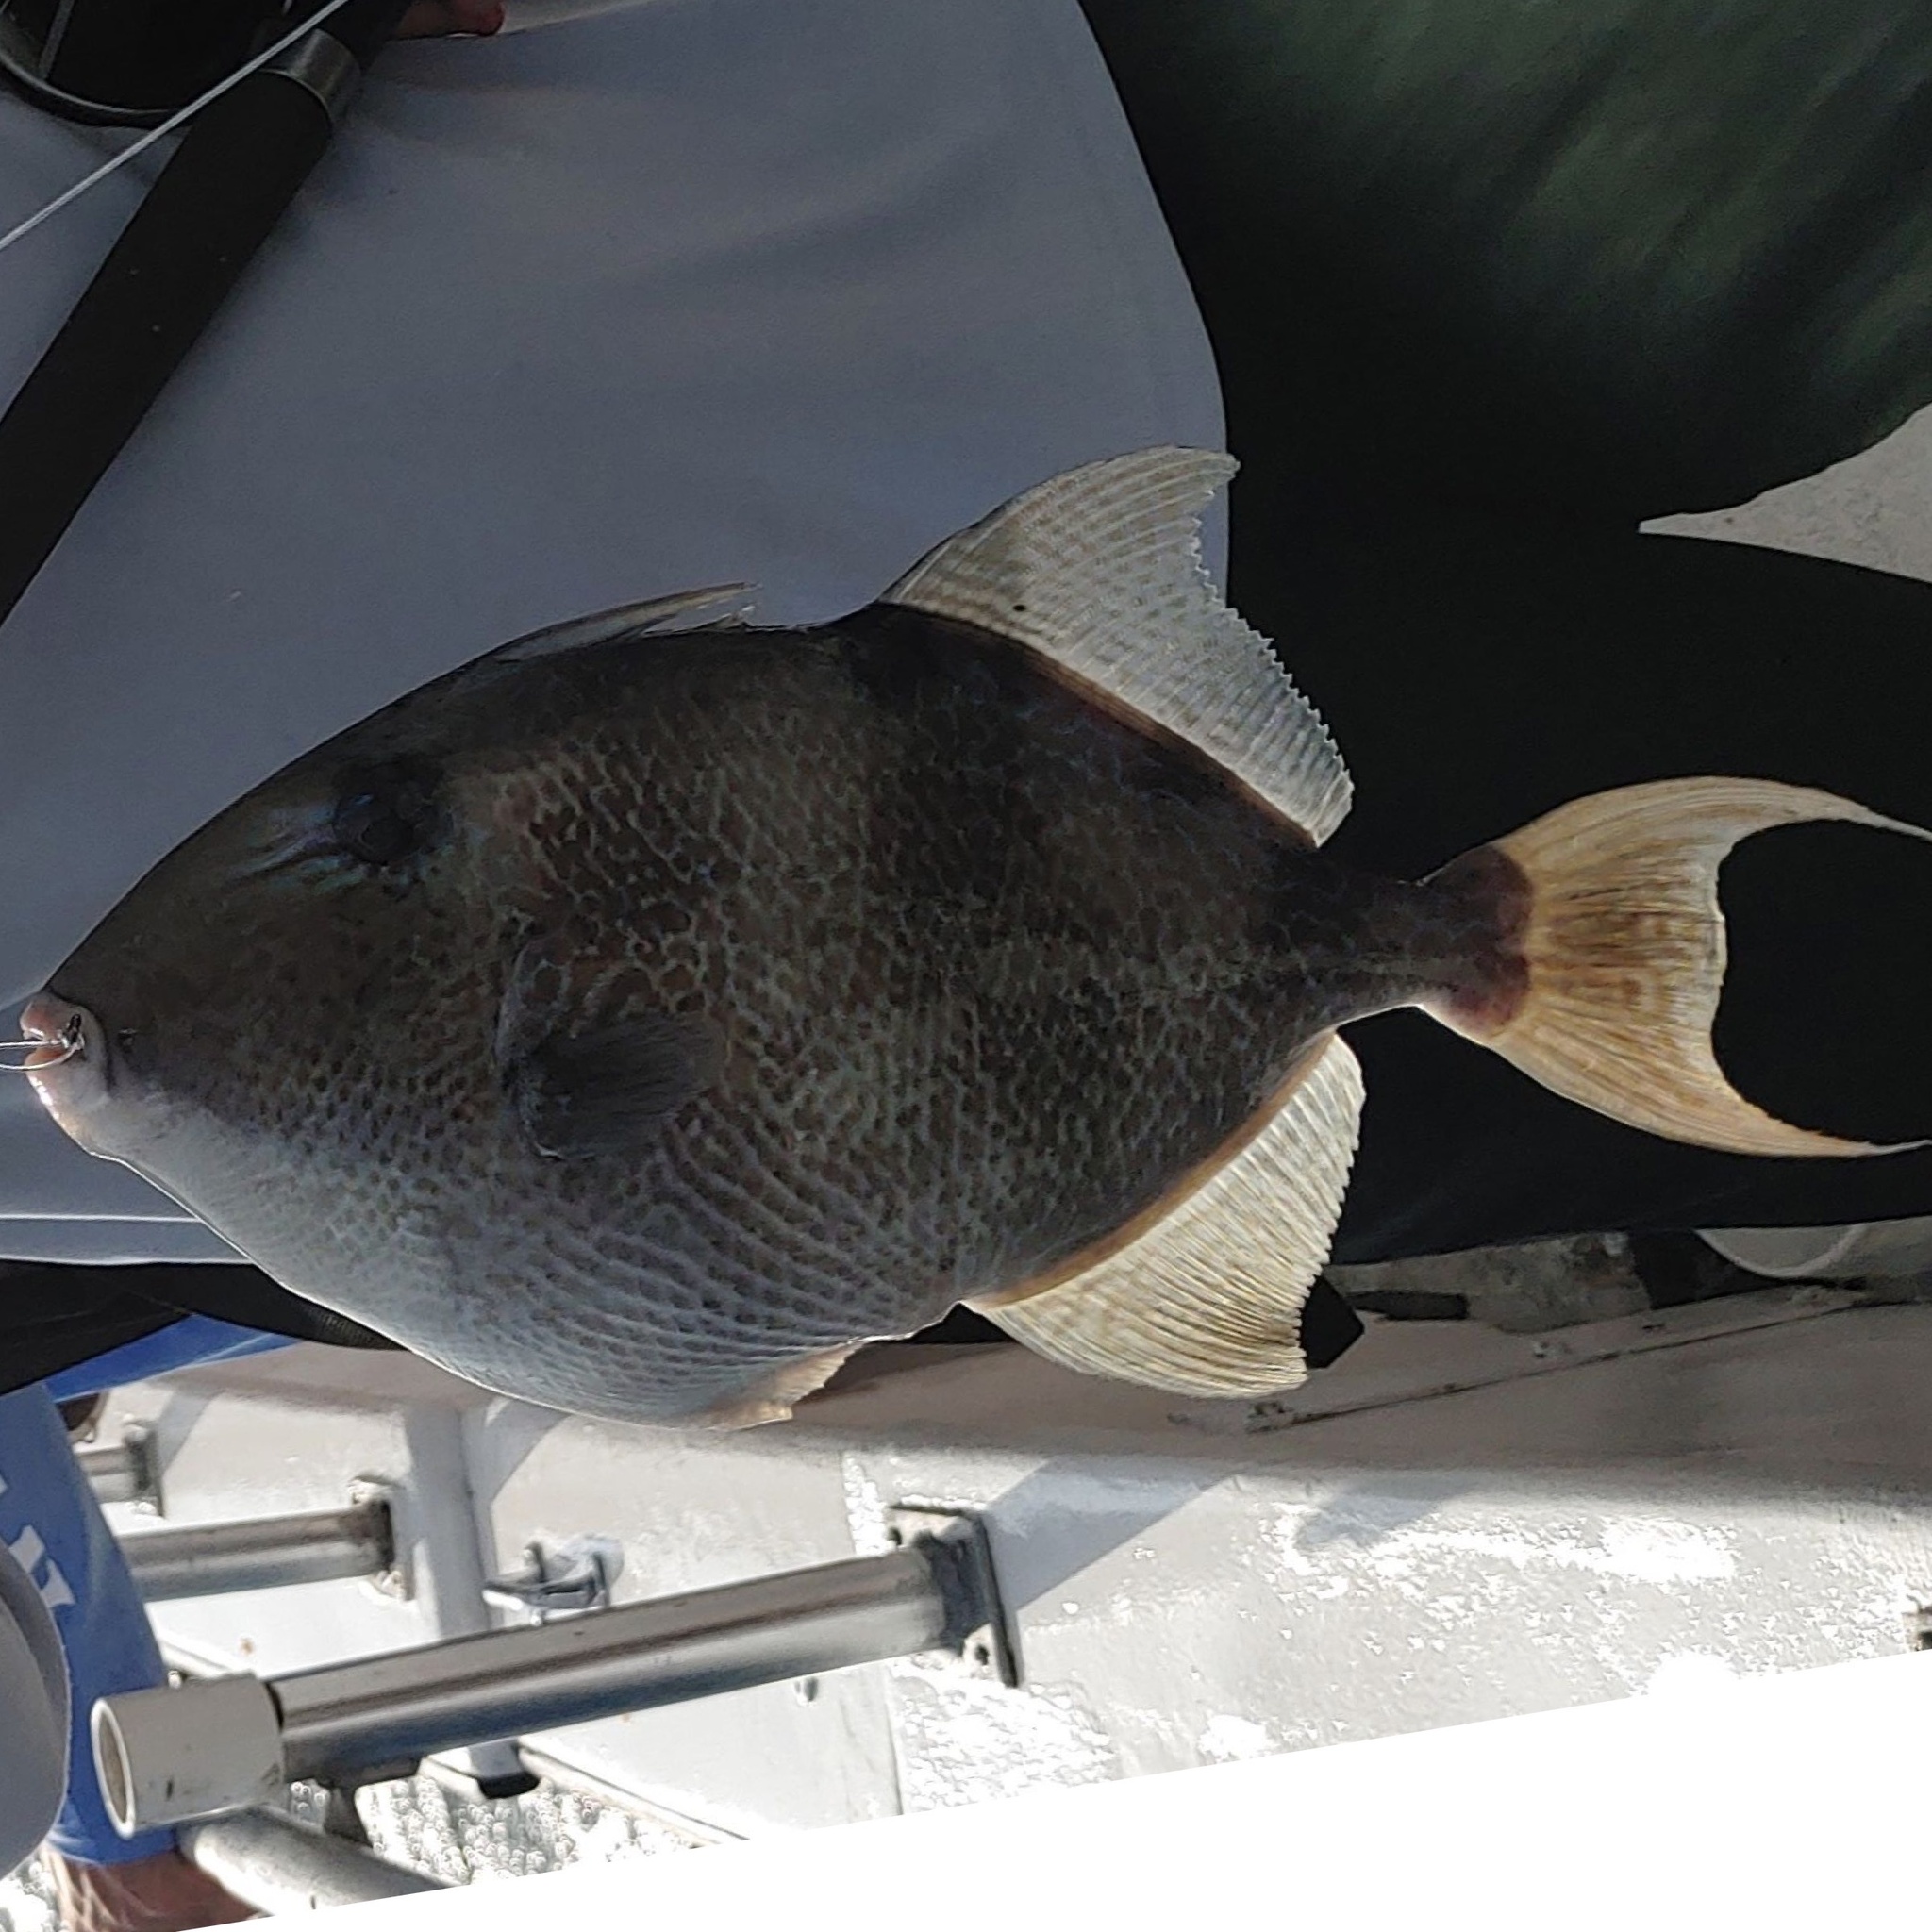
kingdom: Animalia
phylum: Chordata
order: Tetraodontiformes
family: Balistidae
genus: Balistes
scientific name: Balistes capriscus
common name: Grey triggerfish
